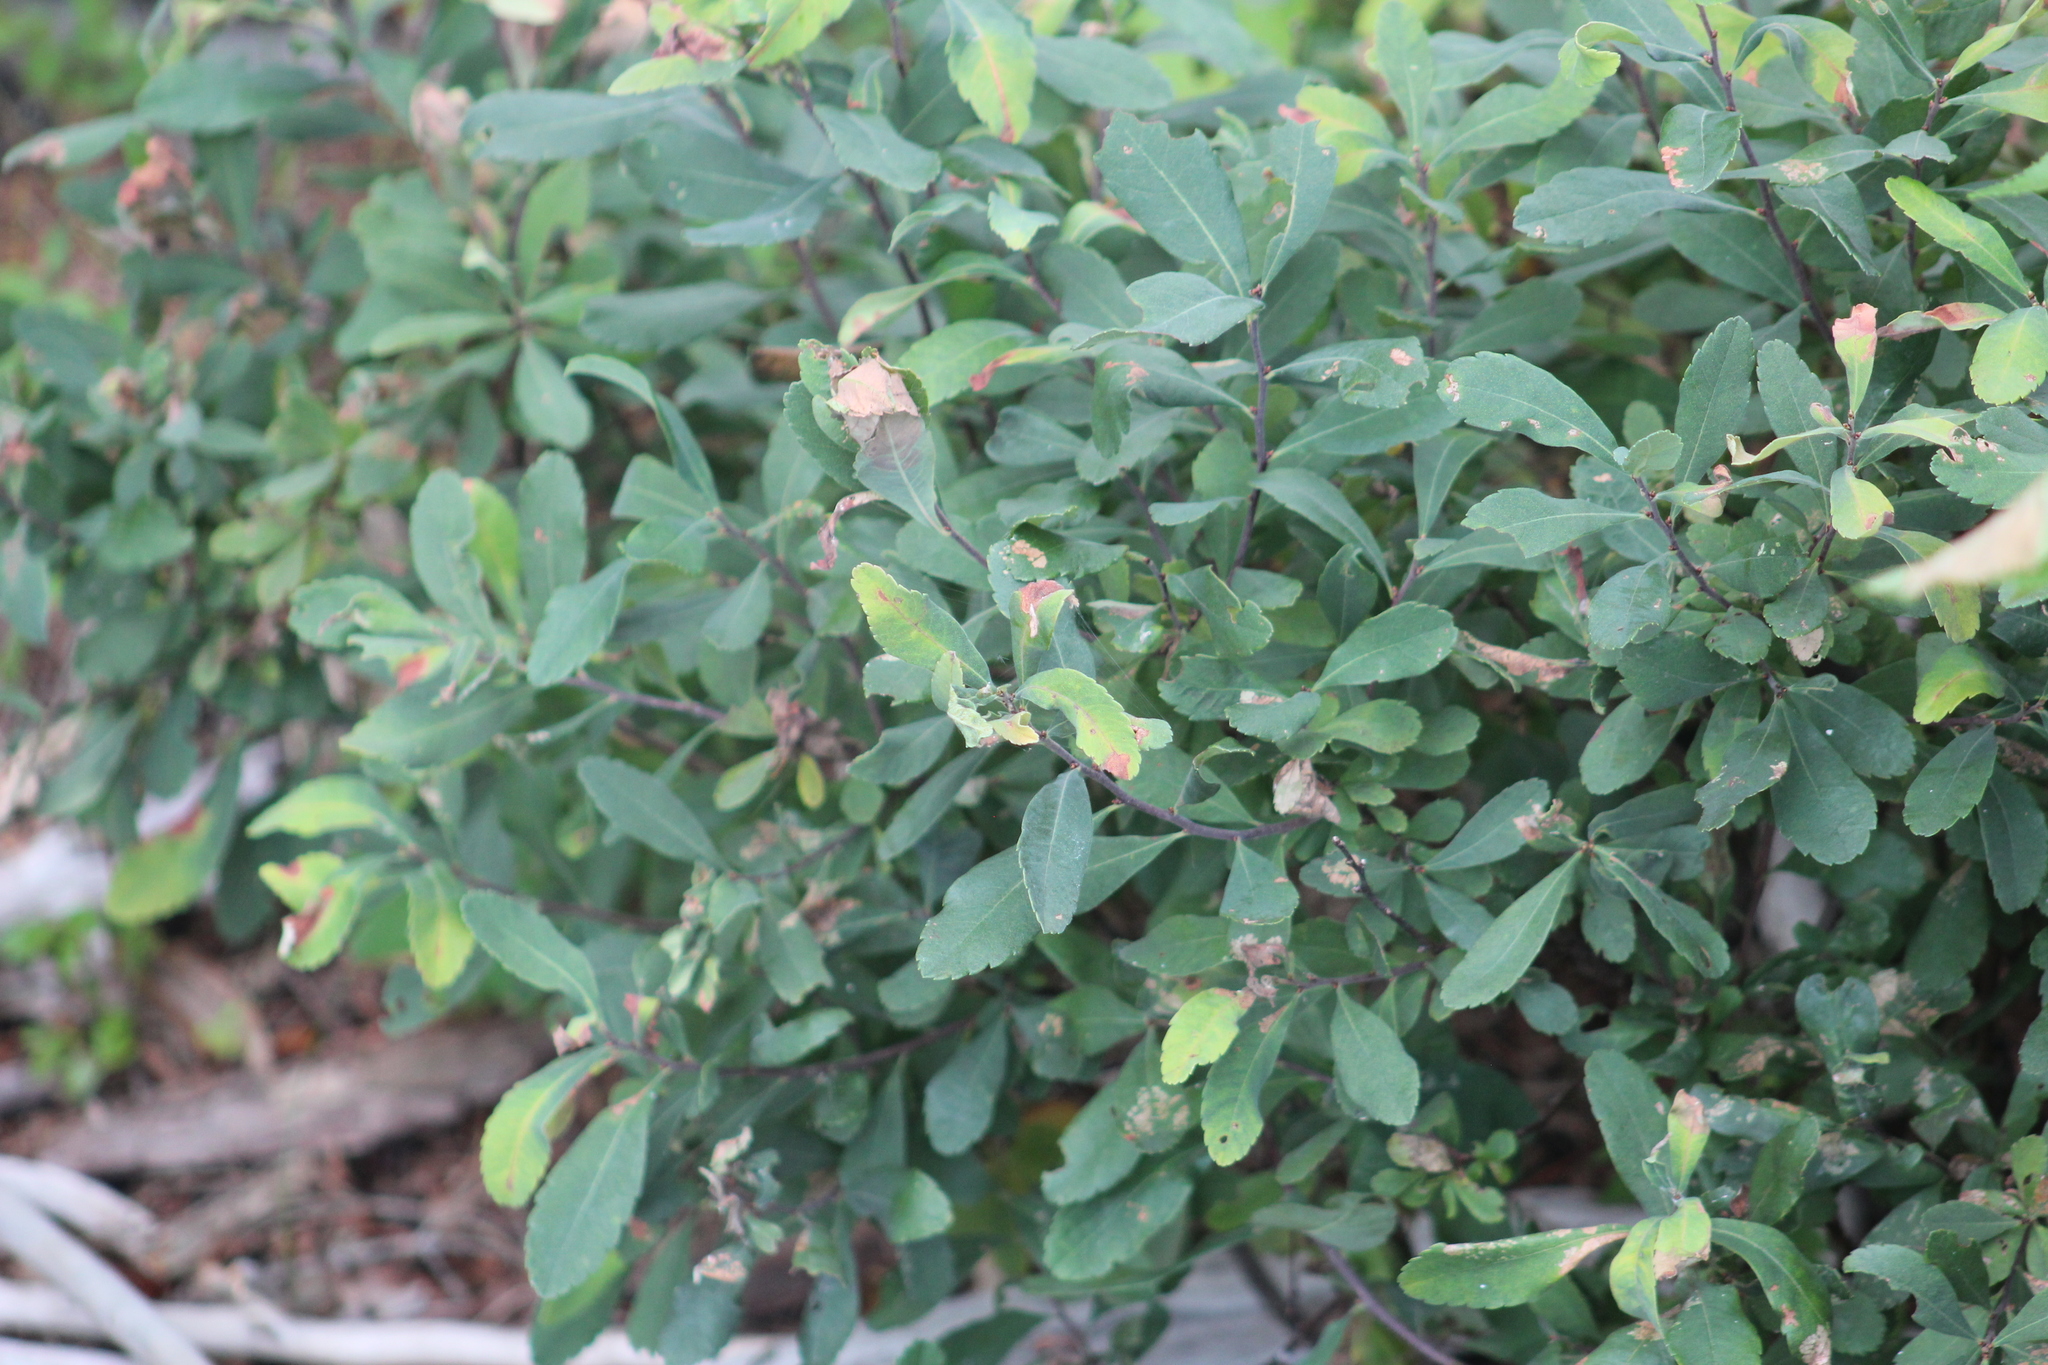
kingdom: Plantae
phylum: Tracheophyta
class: Magnoliopsida
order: Fagales
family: Myricaceae
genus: Myrica
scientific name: Myrica gale
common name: Sweet gale
